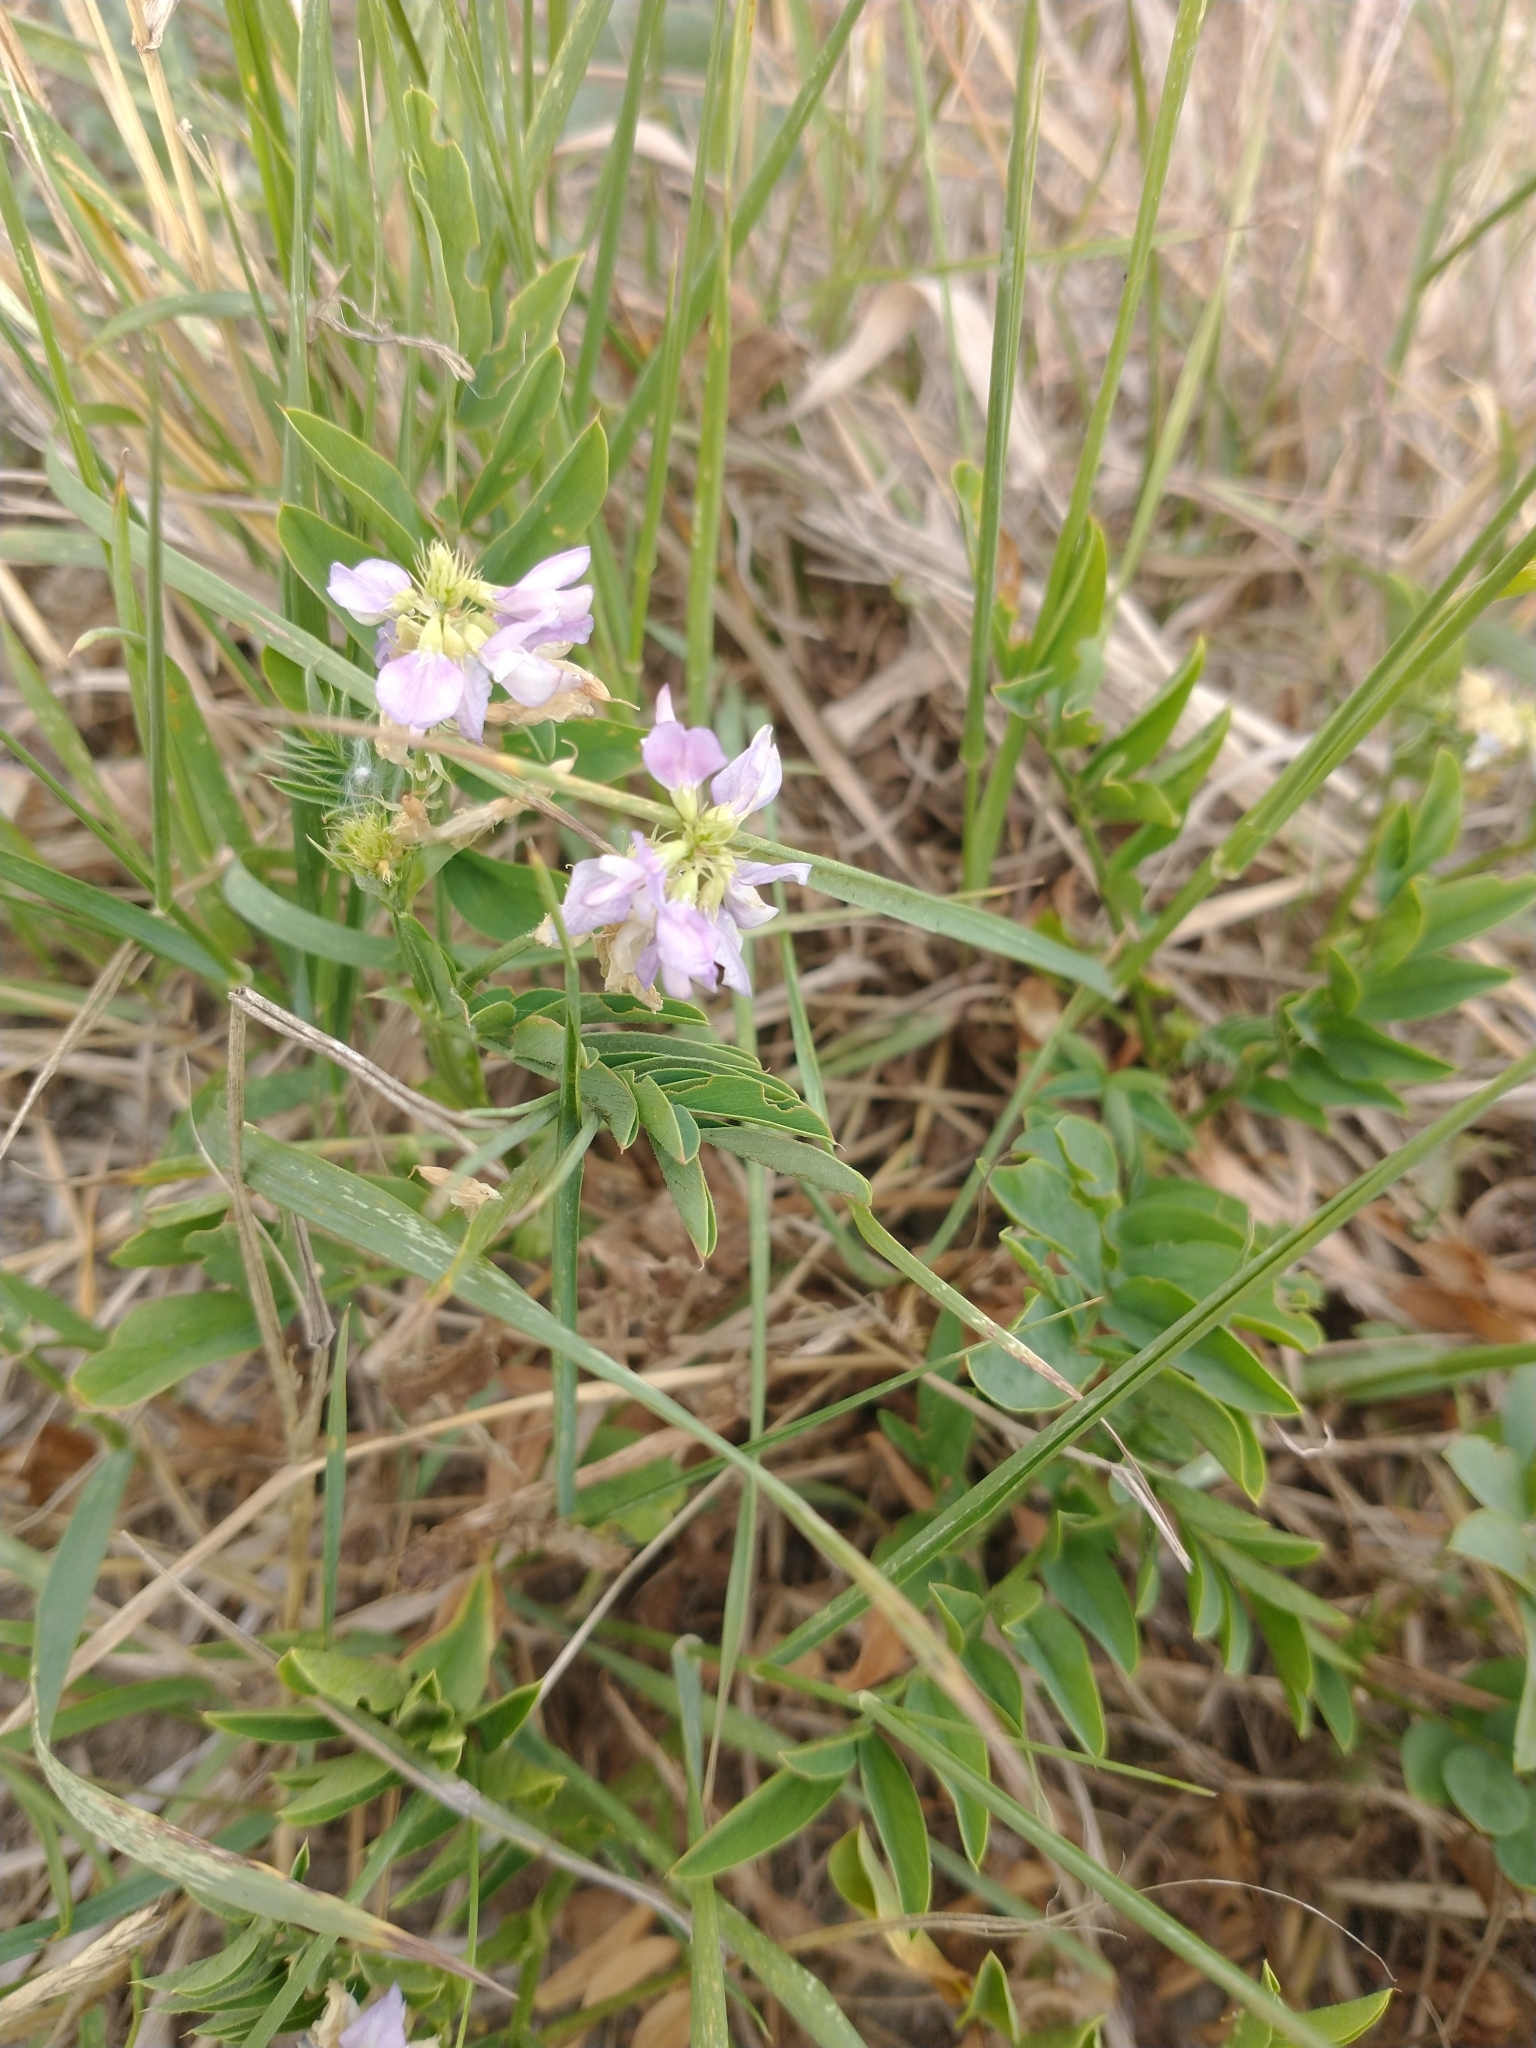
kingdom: Plantae
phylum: Tracheophyta
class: Magnoliopsida
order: Fabales
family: Fabaceae
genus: Galega
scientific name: Galega officinalis
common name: Goat's-rue
